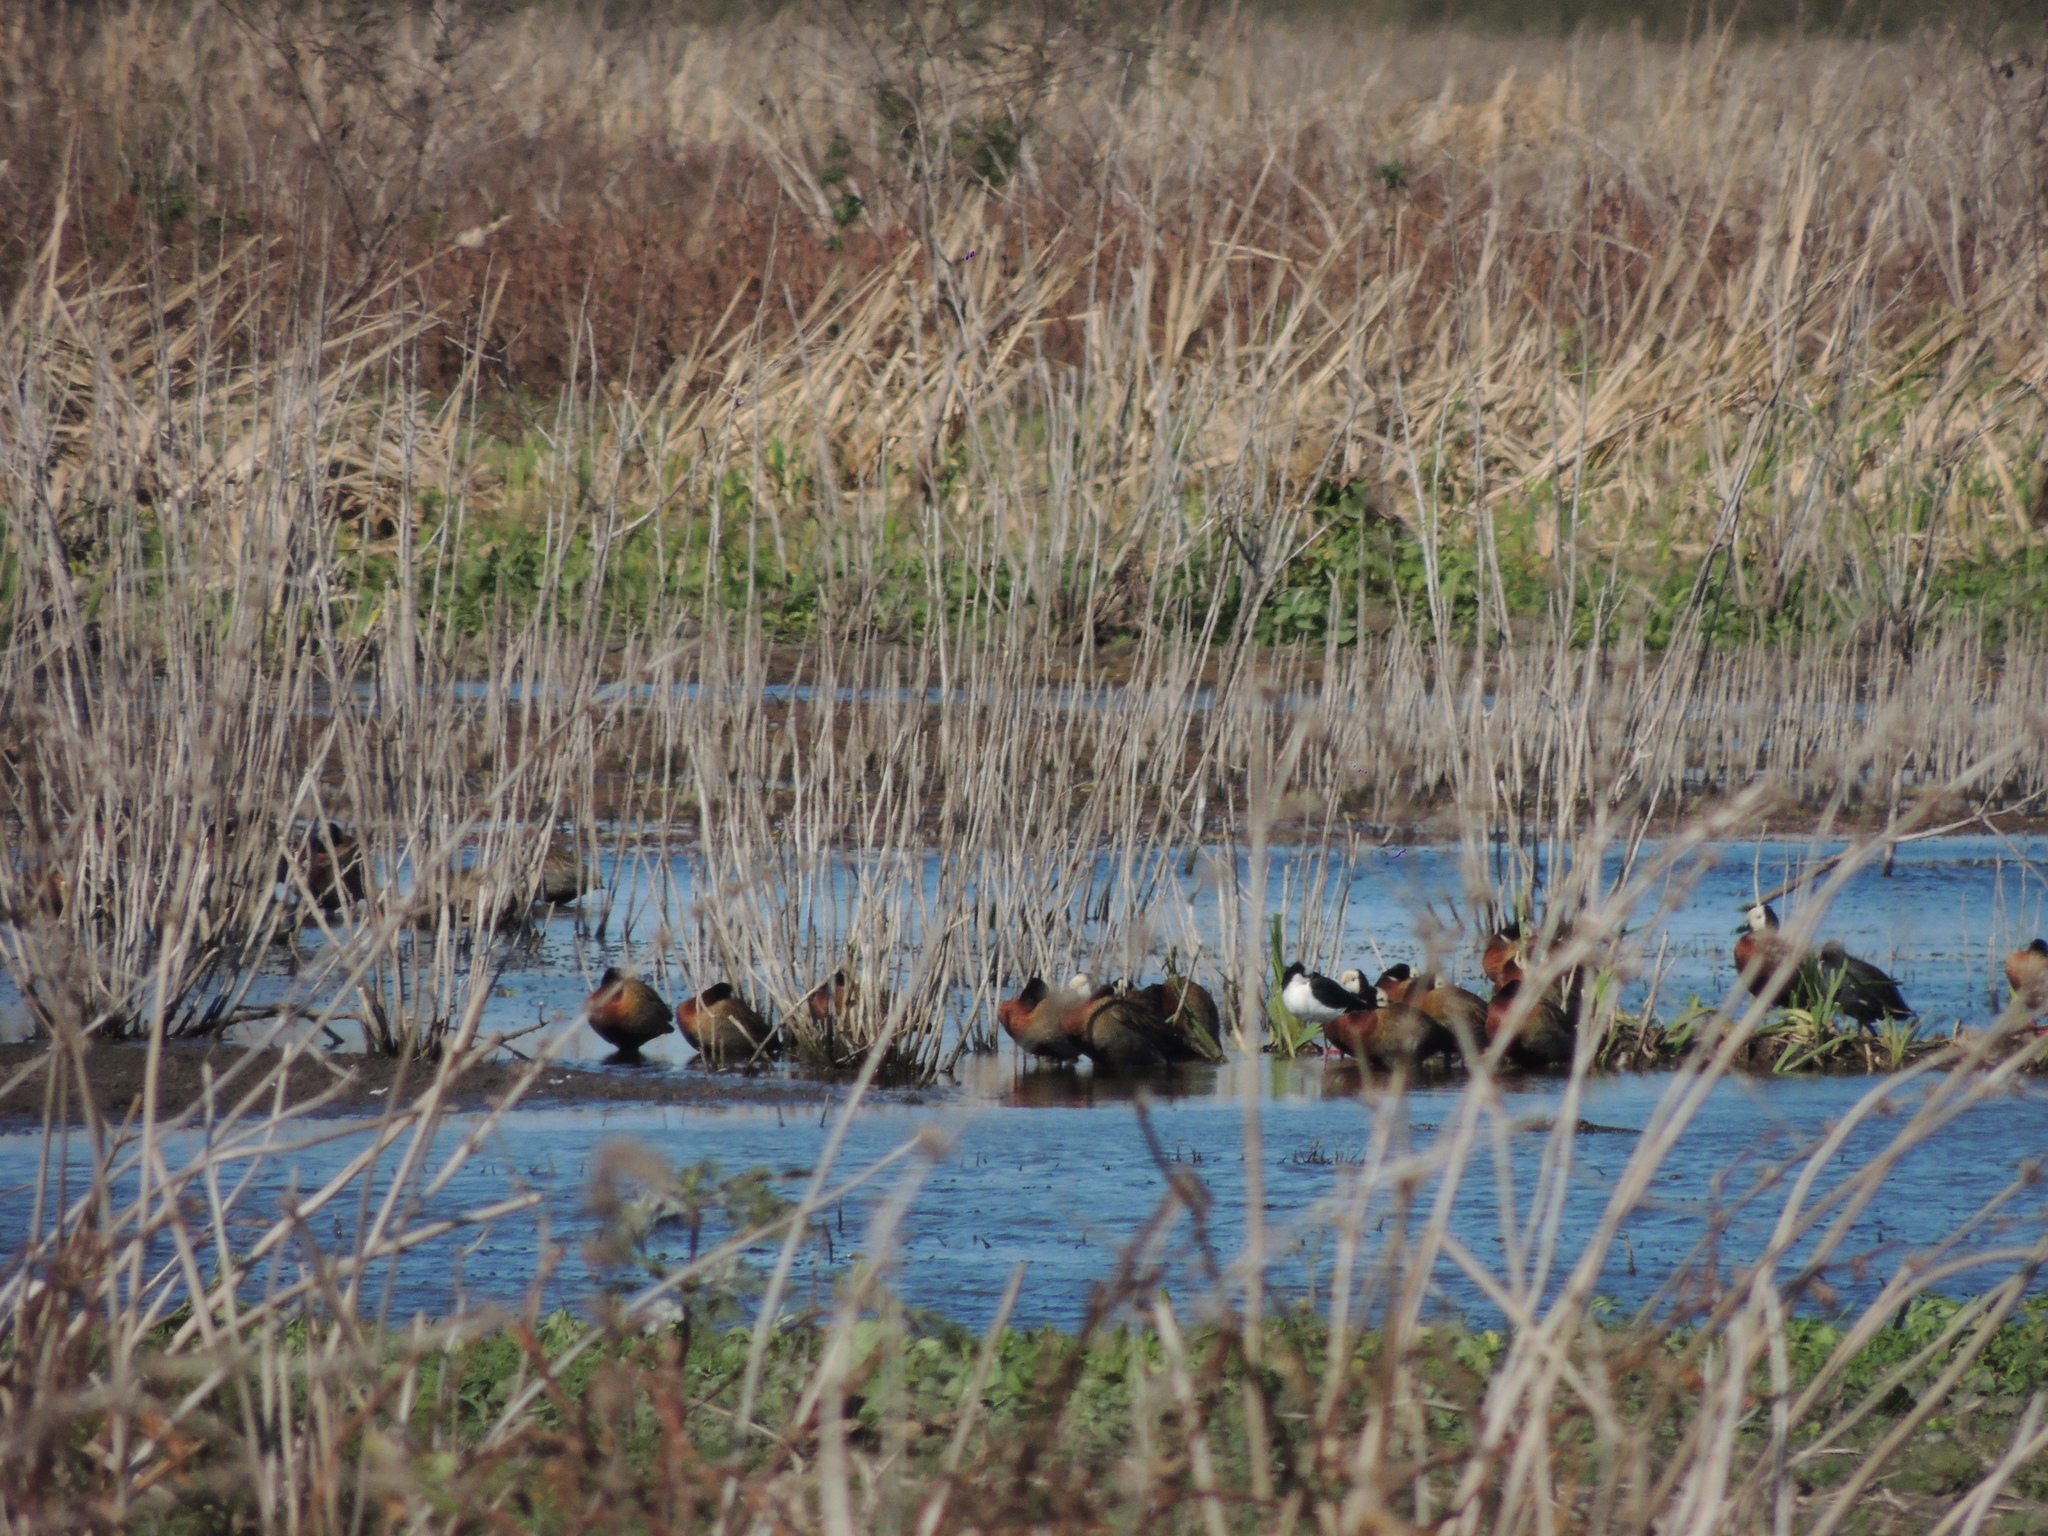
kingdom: Animalia
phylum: Chordata
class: Aves
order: Anseriformes
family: Anatidae
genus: Dendrocygna
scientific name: Dendrocygna viduata
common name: White-faced whistling duck
